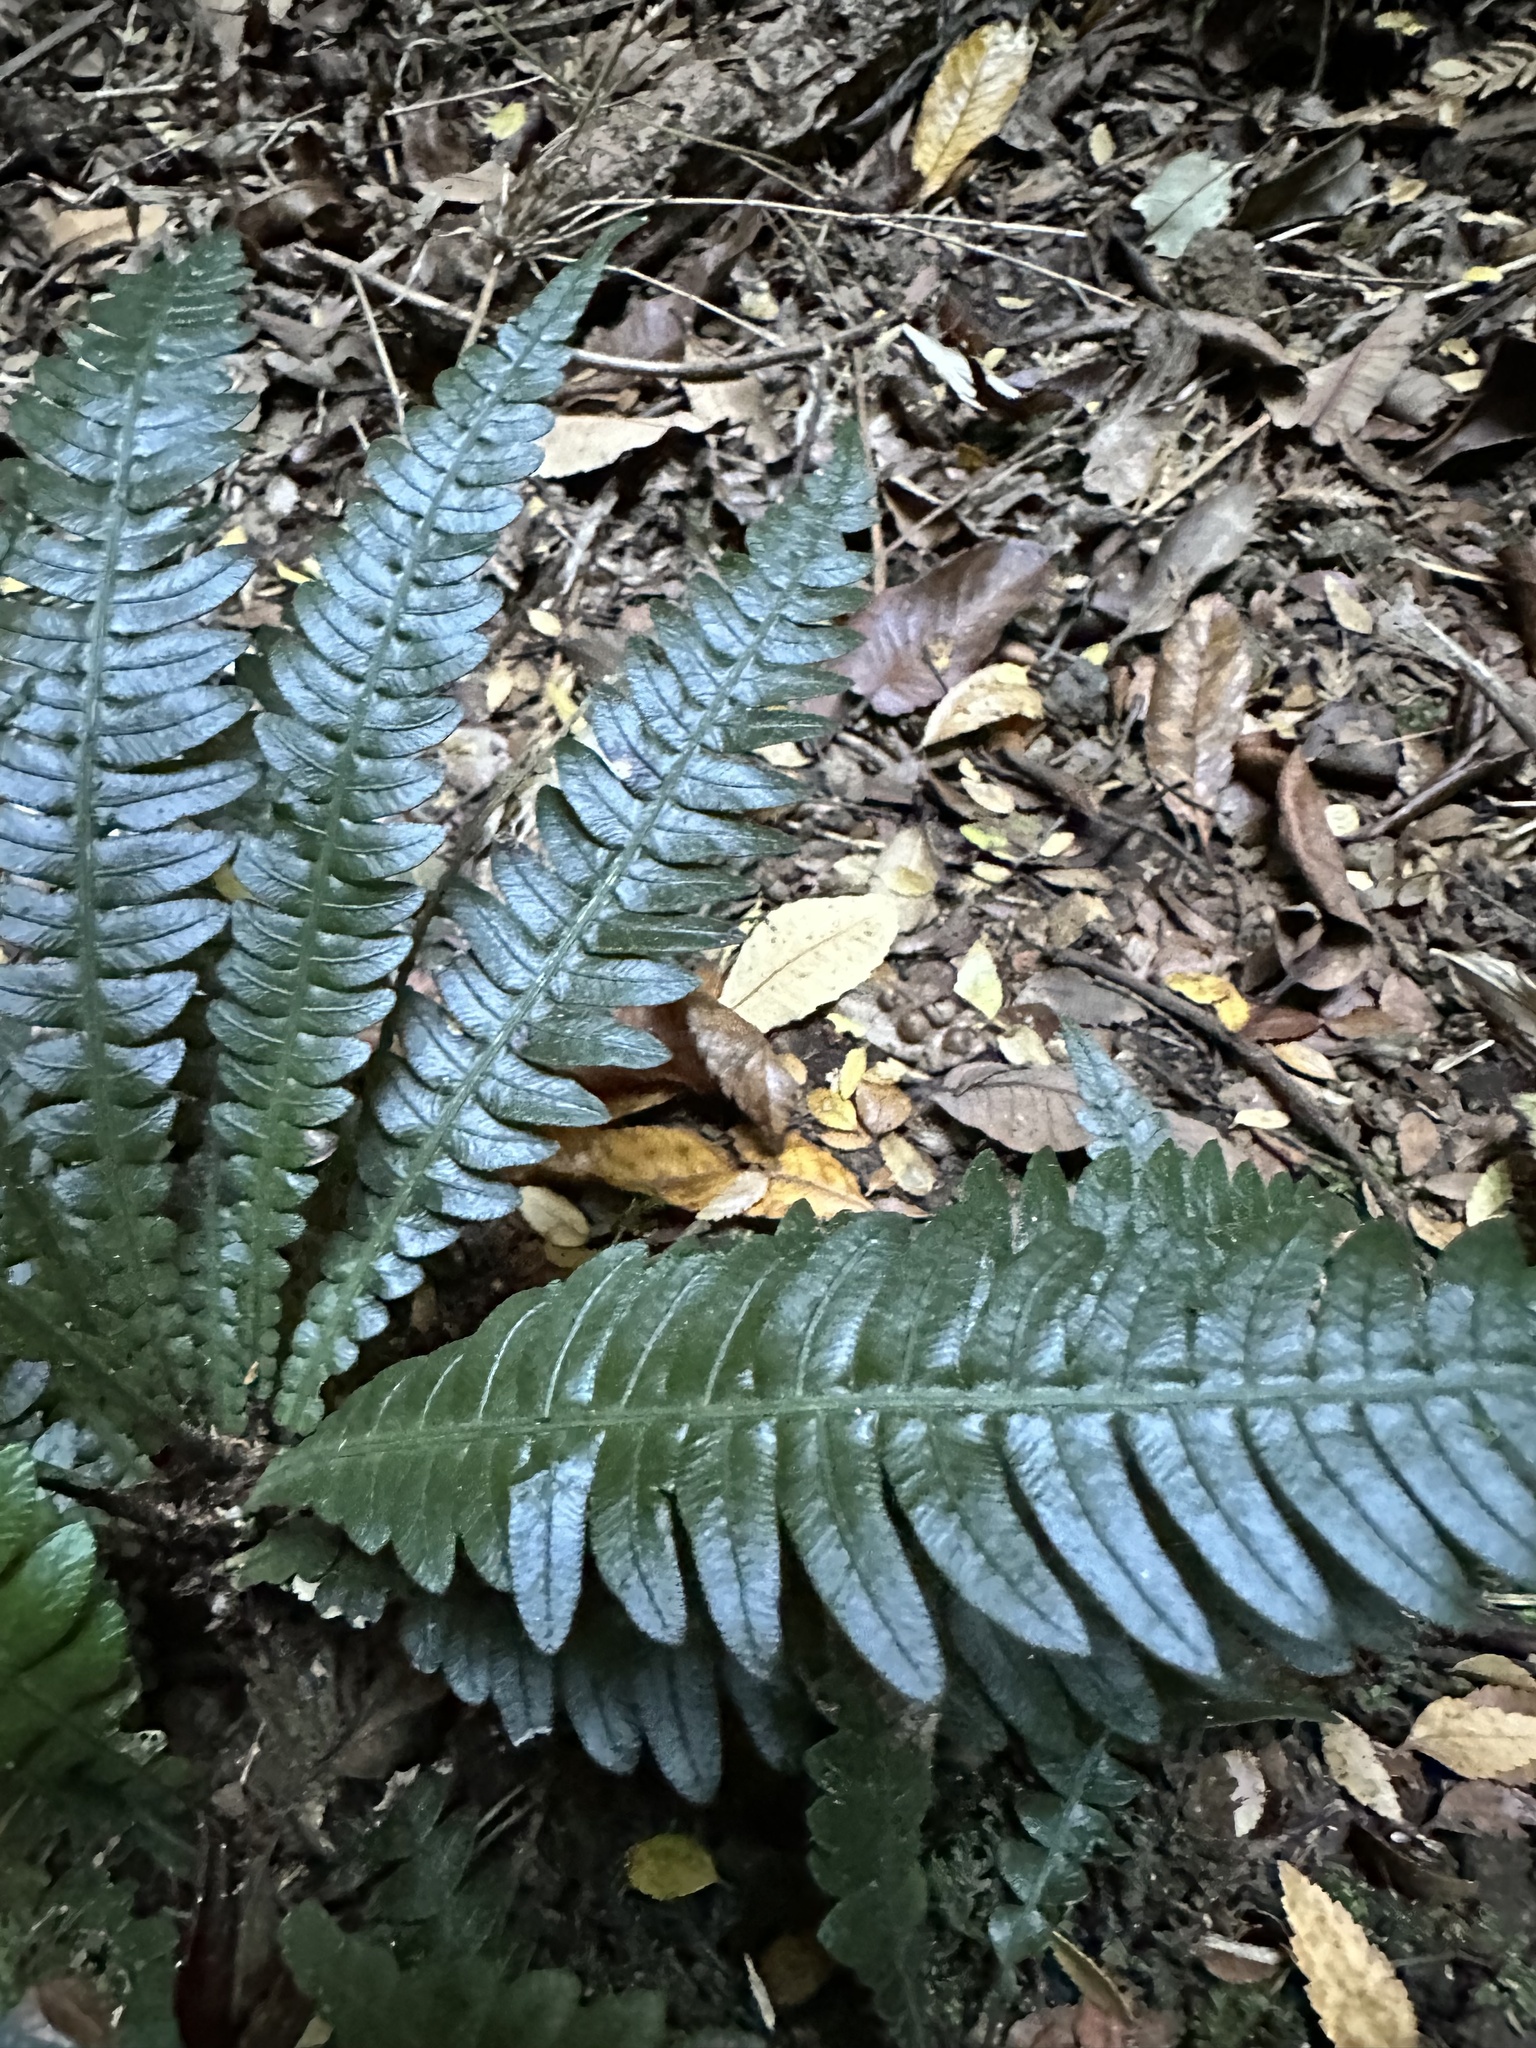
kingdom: Plantae
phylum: Tracheophyta
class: Polypodiopsida
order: Polypodiales
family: Blechnaceae
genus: Austroblechnum
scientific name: Austroblechnum lechleri
